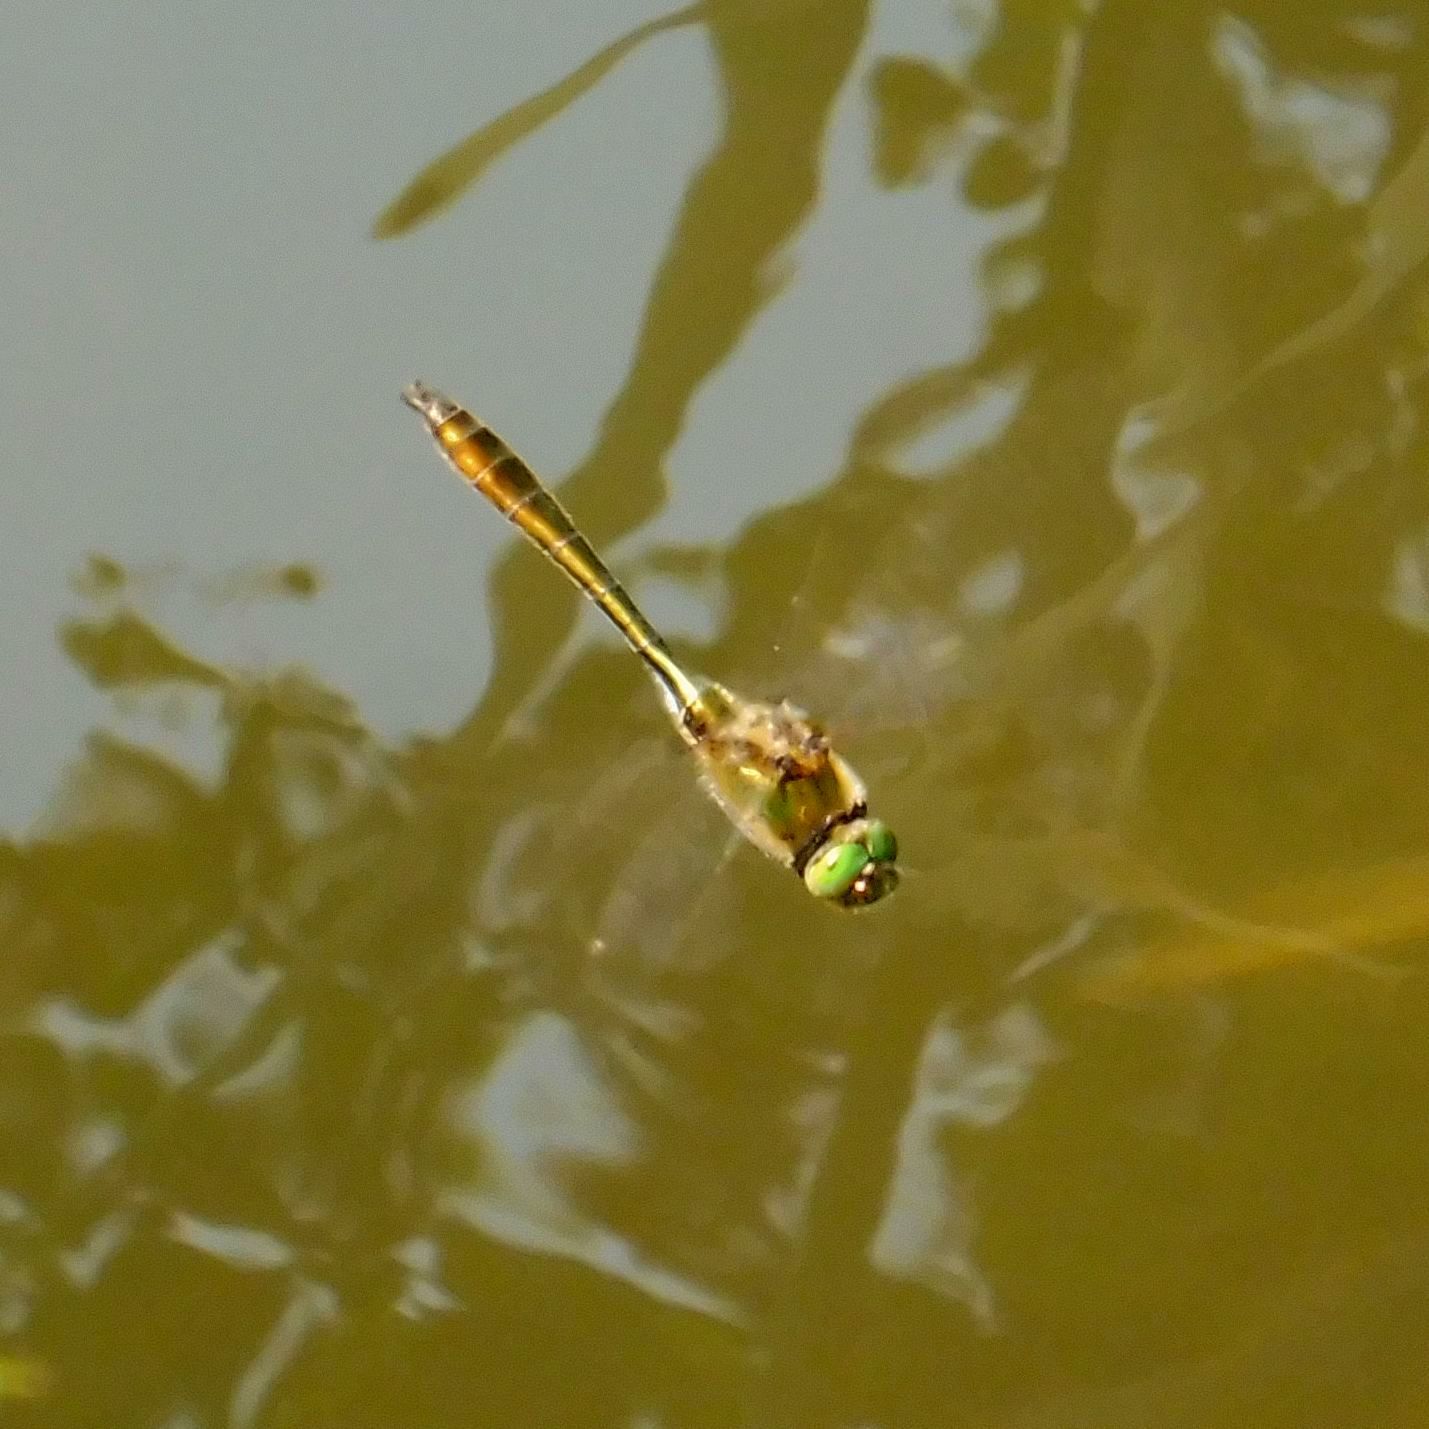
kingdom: Animalia
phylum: Arthropoda
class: Insecta
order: Odonata
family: Corduliidae
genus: Cordulia
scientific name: Cordulia aenea
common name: Downy emerald
